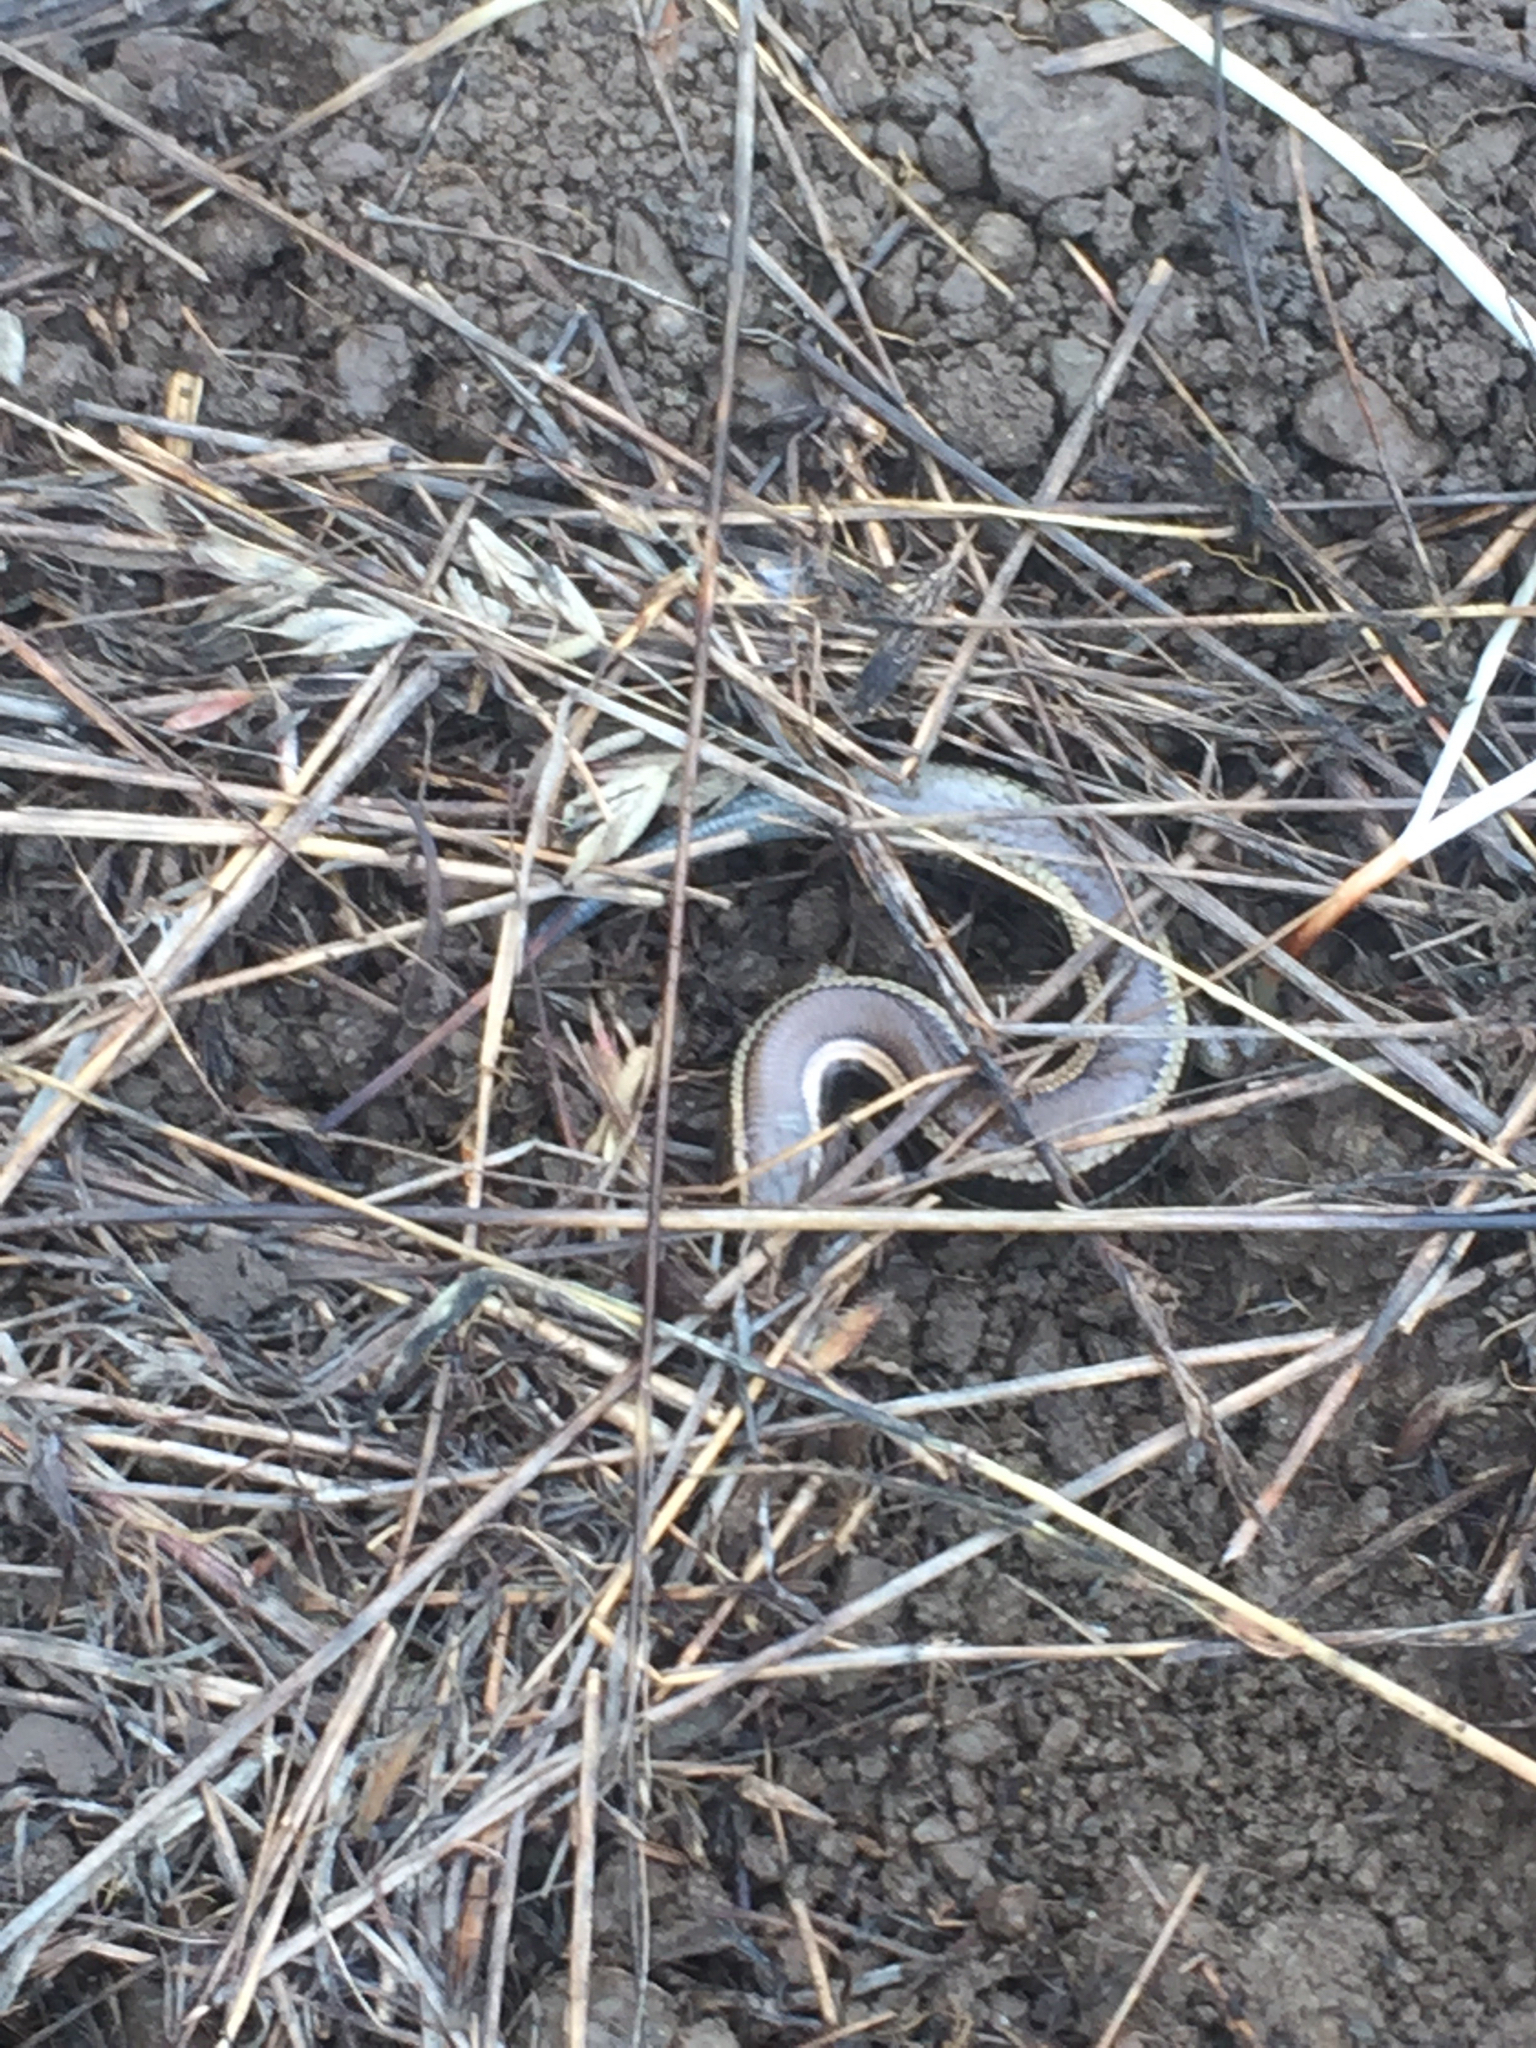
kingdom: Animalia
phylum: Chordata
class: Squamata
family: Scincidae
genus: Plestiodon
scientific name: Plestiodon skiltonianus
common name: Coronado island skink [interparietalis]
